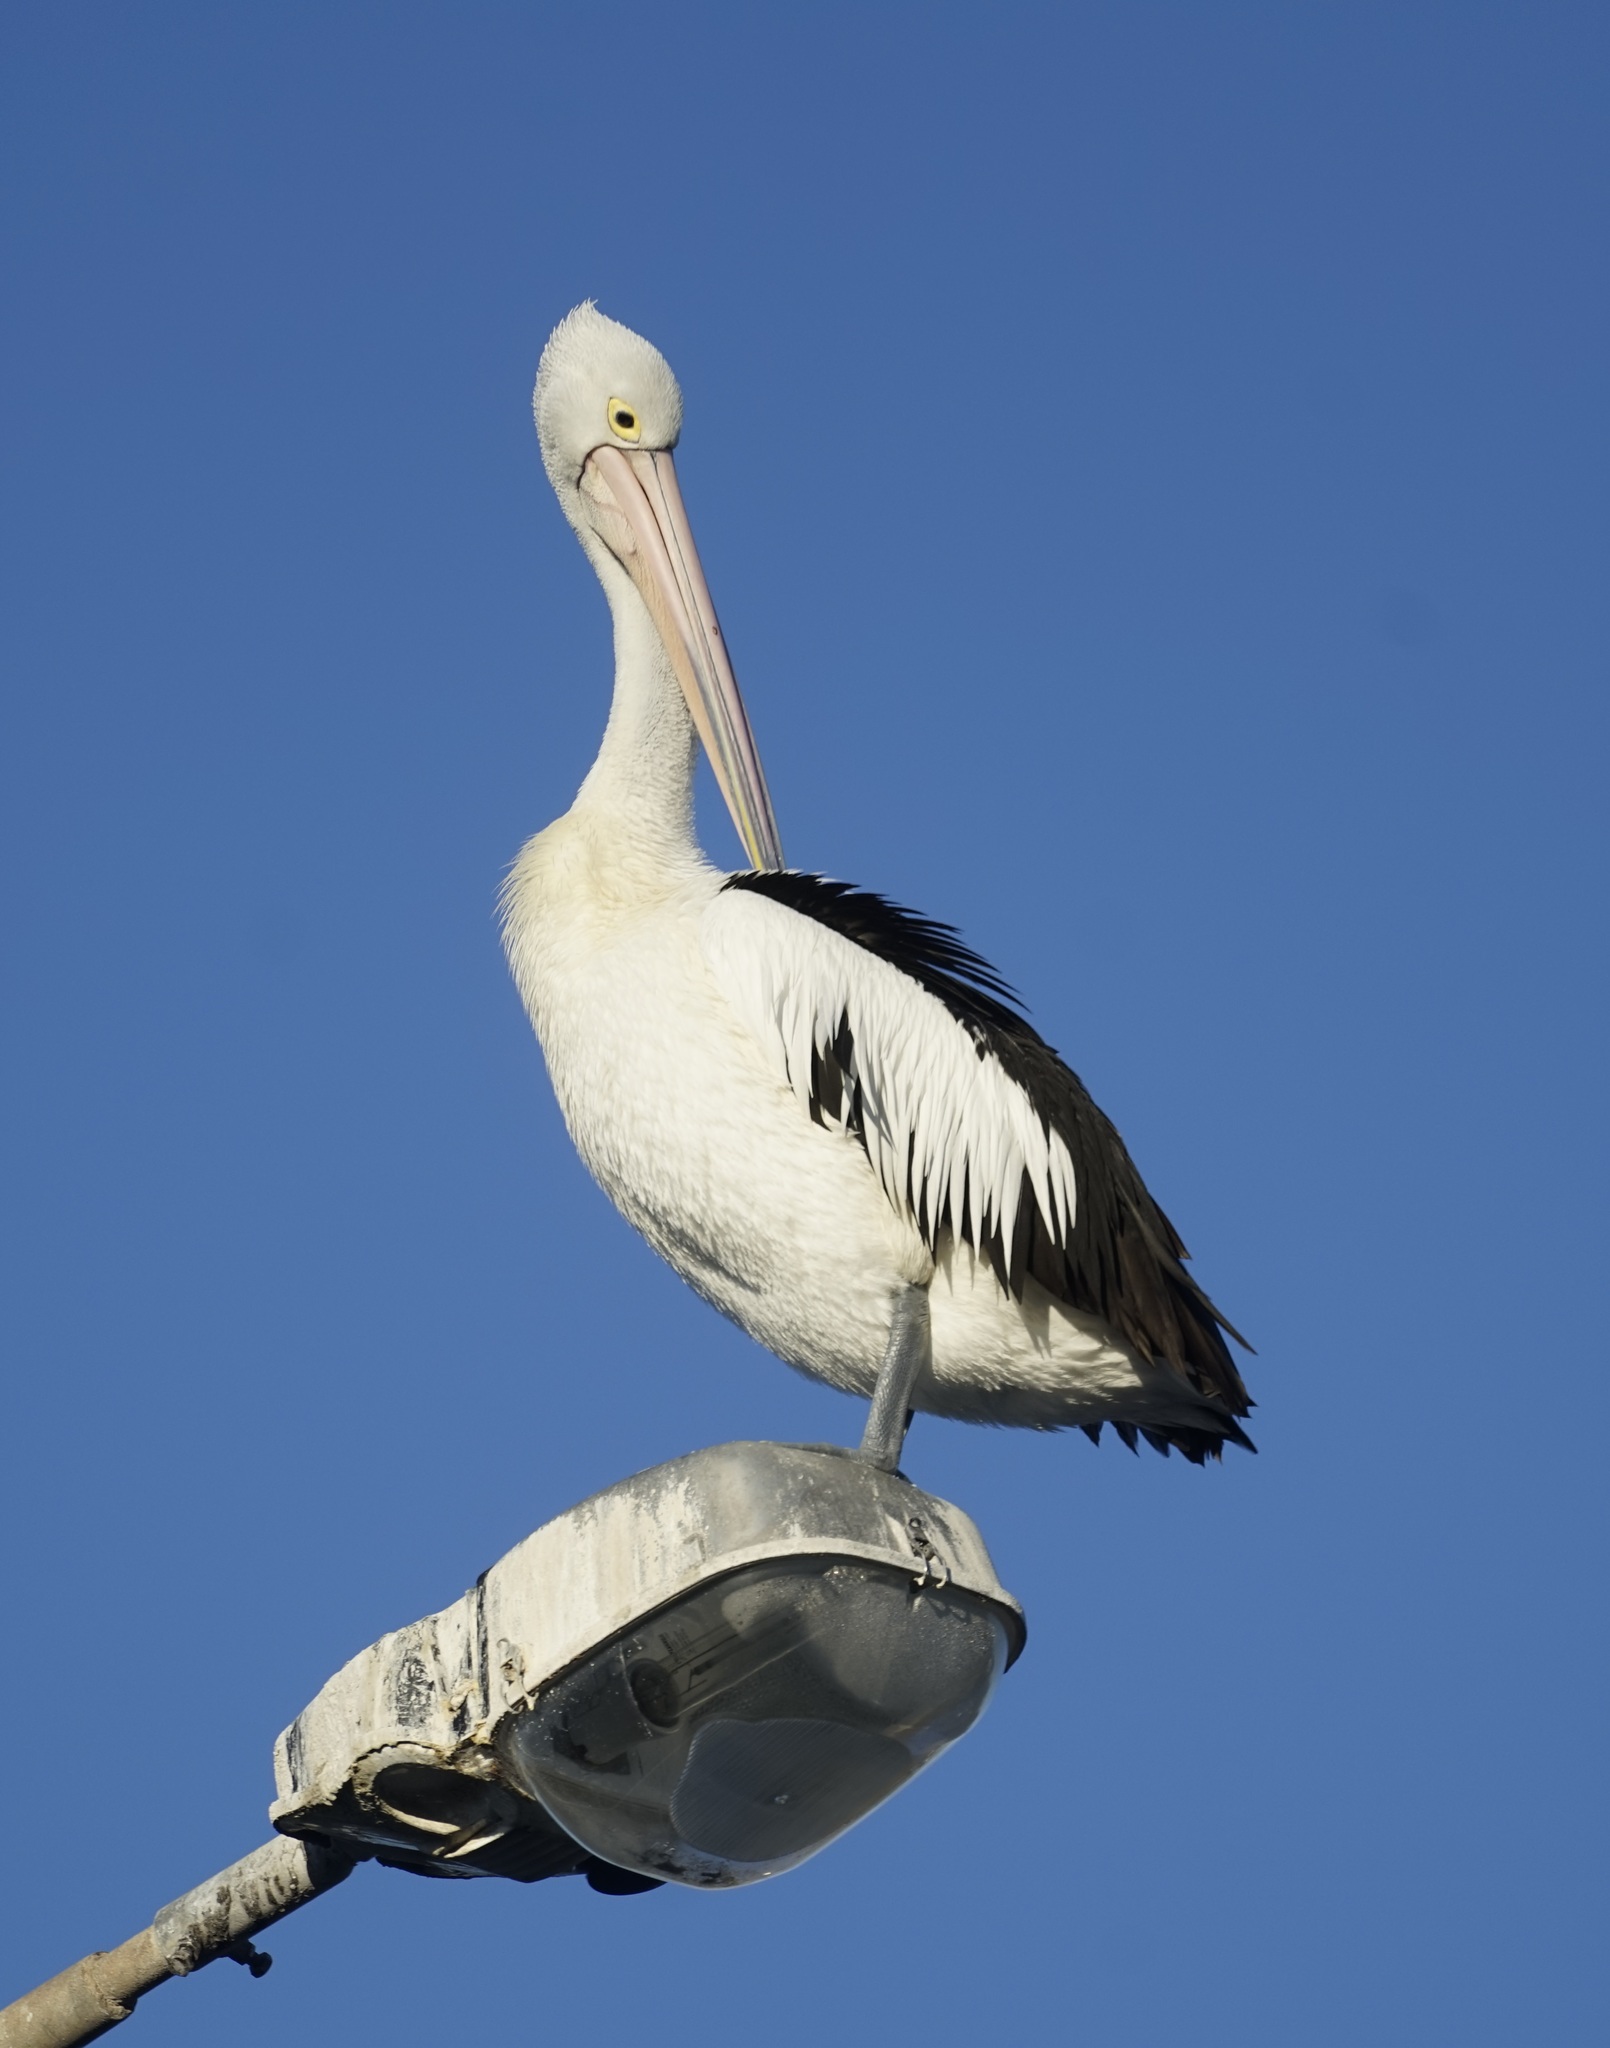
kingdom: Animalia
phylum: Chordata
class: Aves
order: Pelecaniformes
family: Pelecanidae
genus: Pelecanus
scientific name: Pelecanus conspicillatus
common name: Australian pelican
